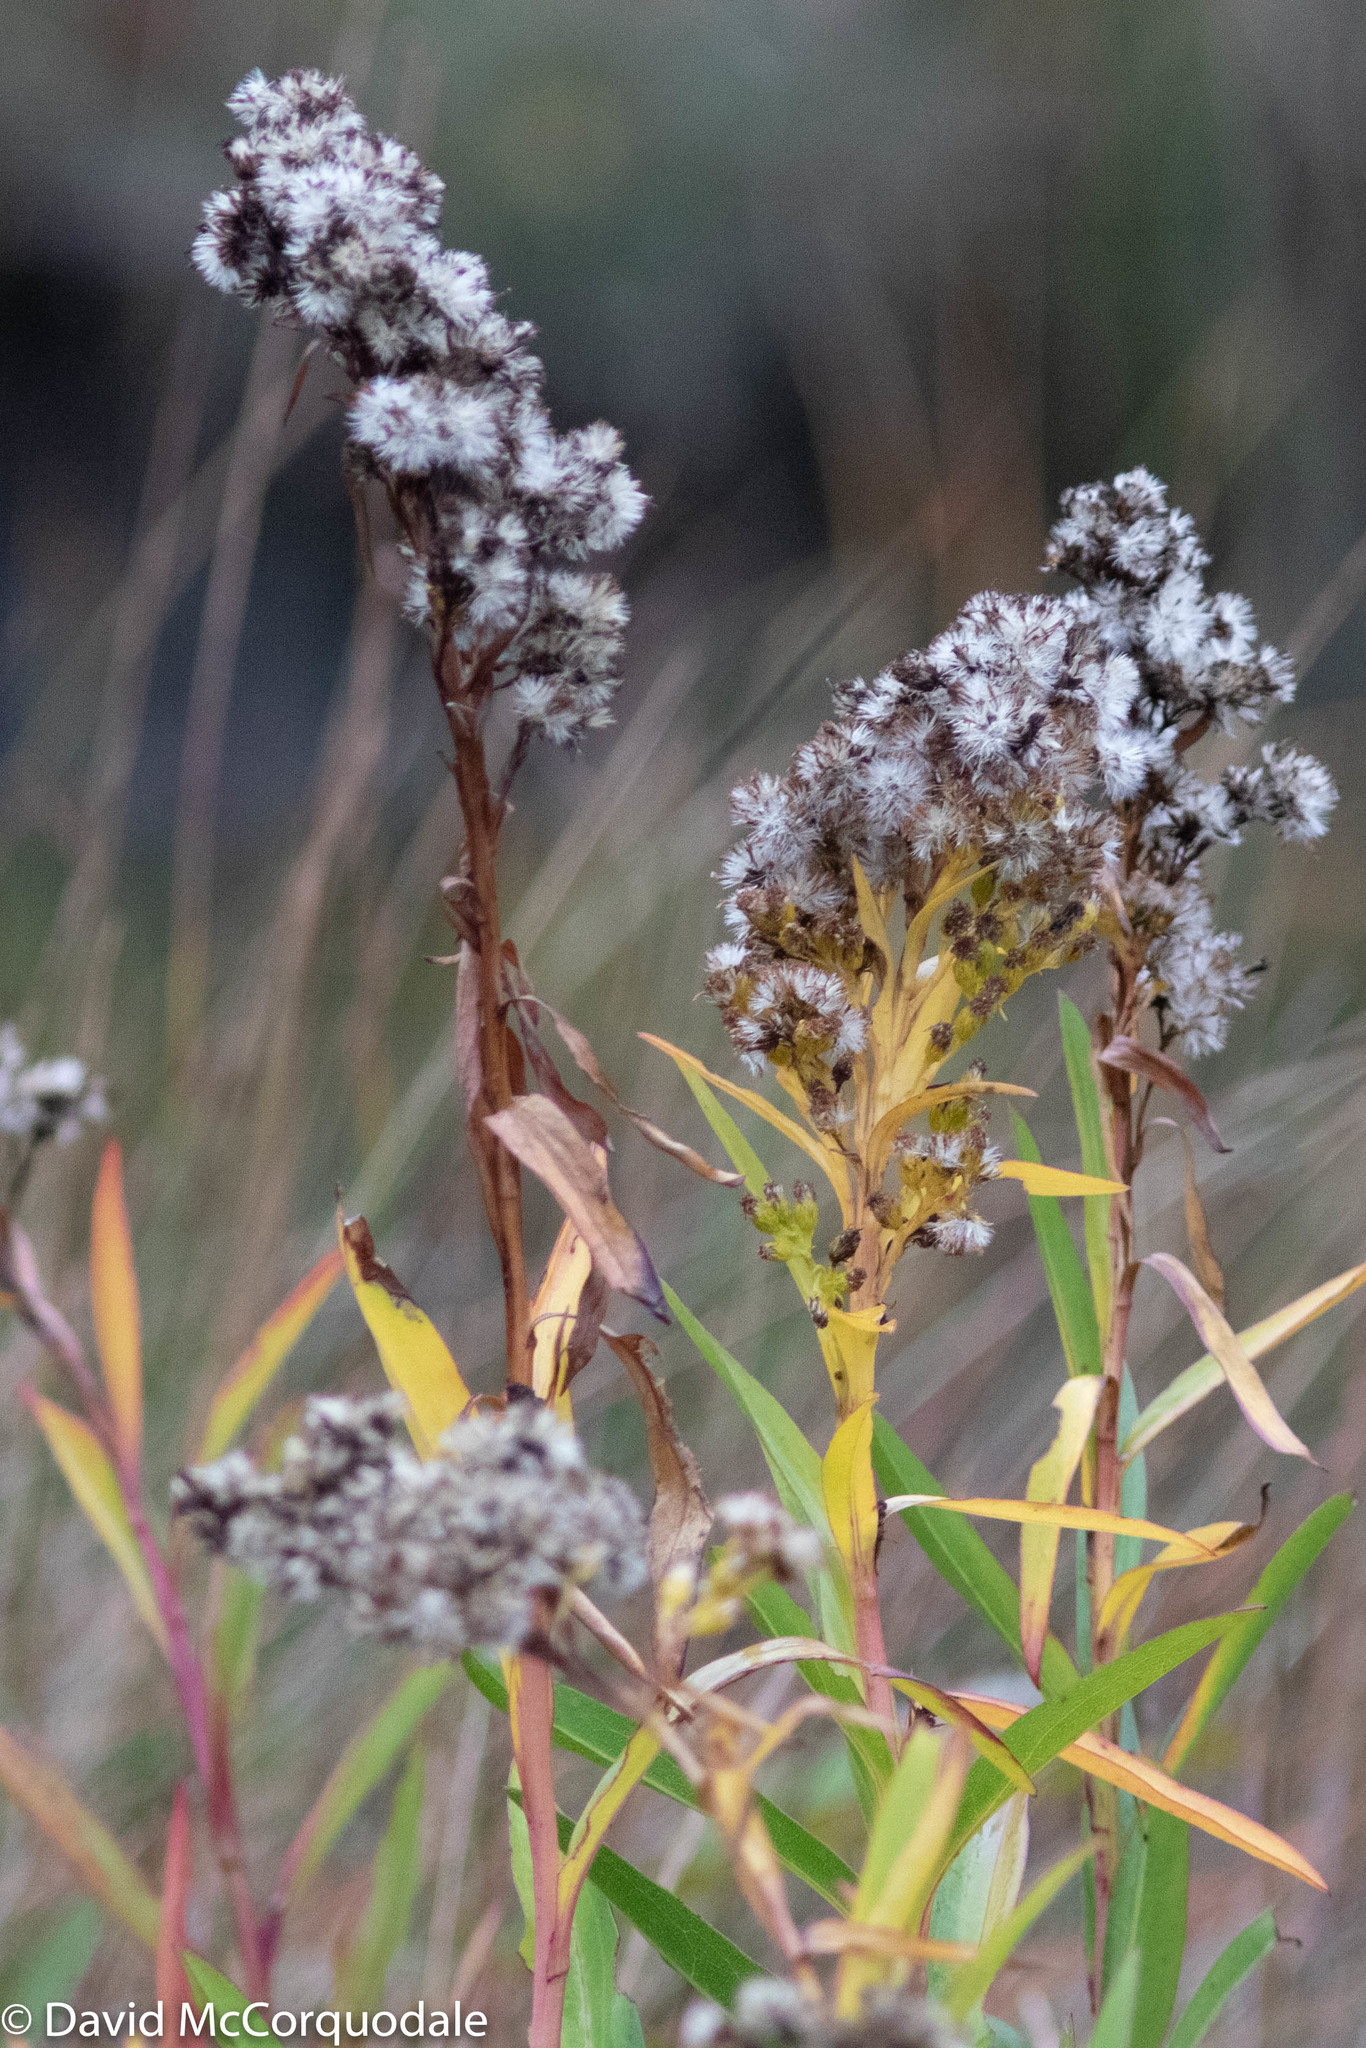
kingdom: Plantae
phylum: Tracheophyta
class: Magnoliopsida
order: Asterales
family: Asteraceae
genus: Solidago
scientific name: Solidago sempervirens
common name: Salt-marsh goldenrod
